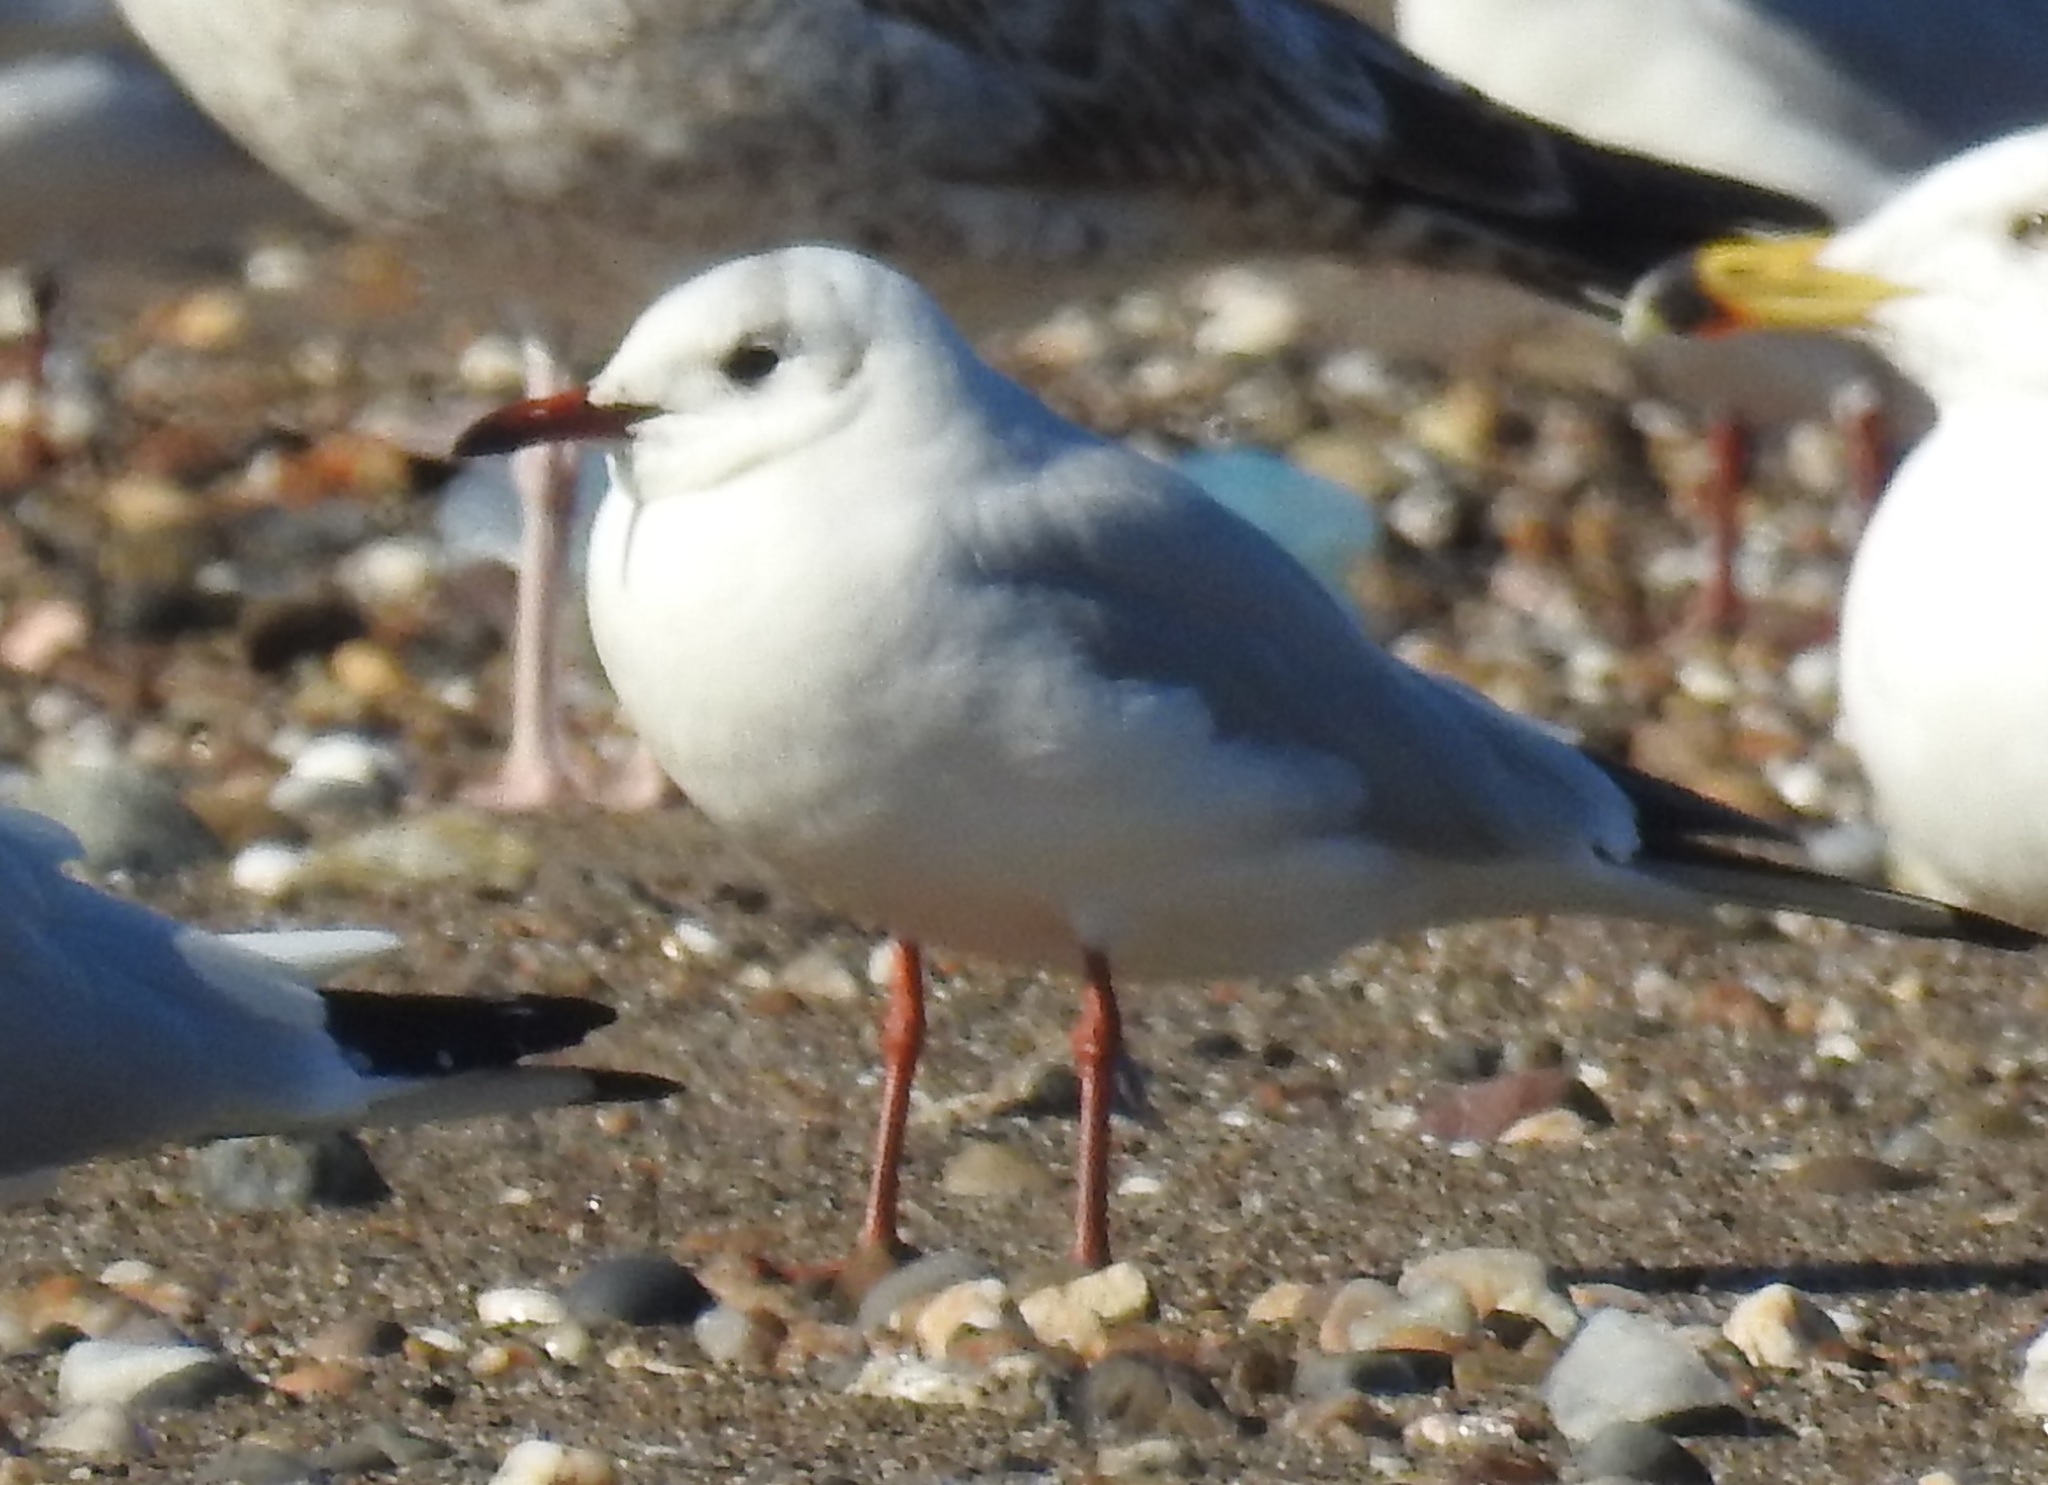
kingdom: Animalia
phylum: Chordata
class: Aves
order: Charadriiformes
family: Laridae
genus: Chroicocephalus
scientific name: Chroicocephalus ridibundus
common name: Black-headed gull
